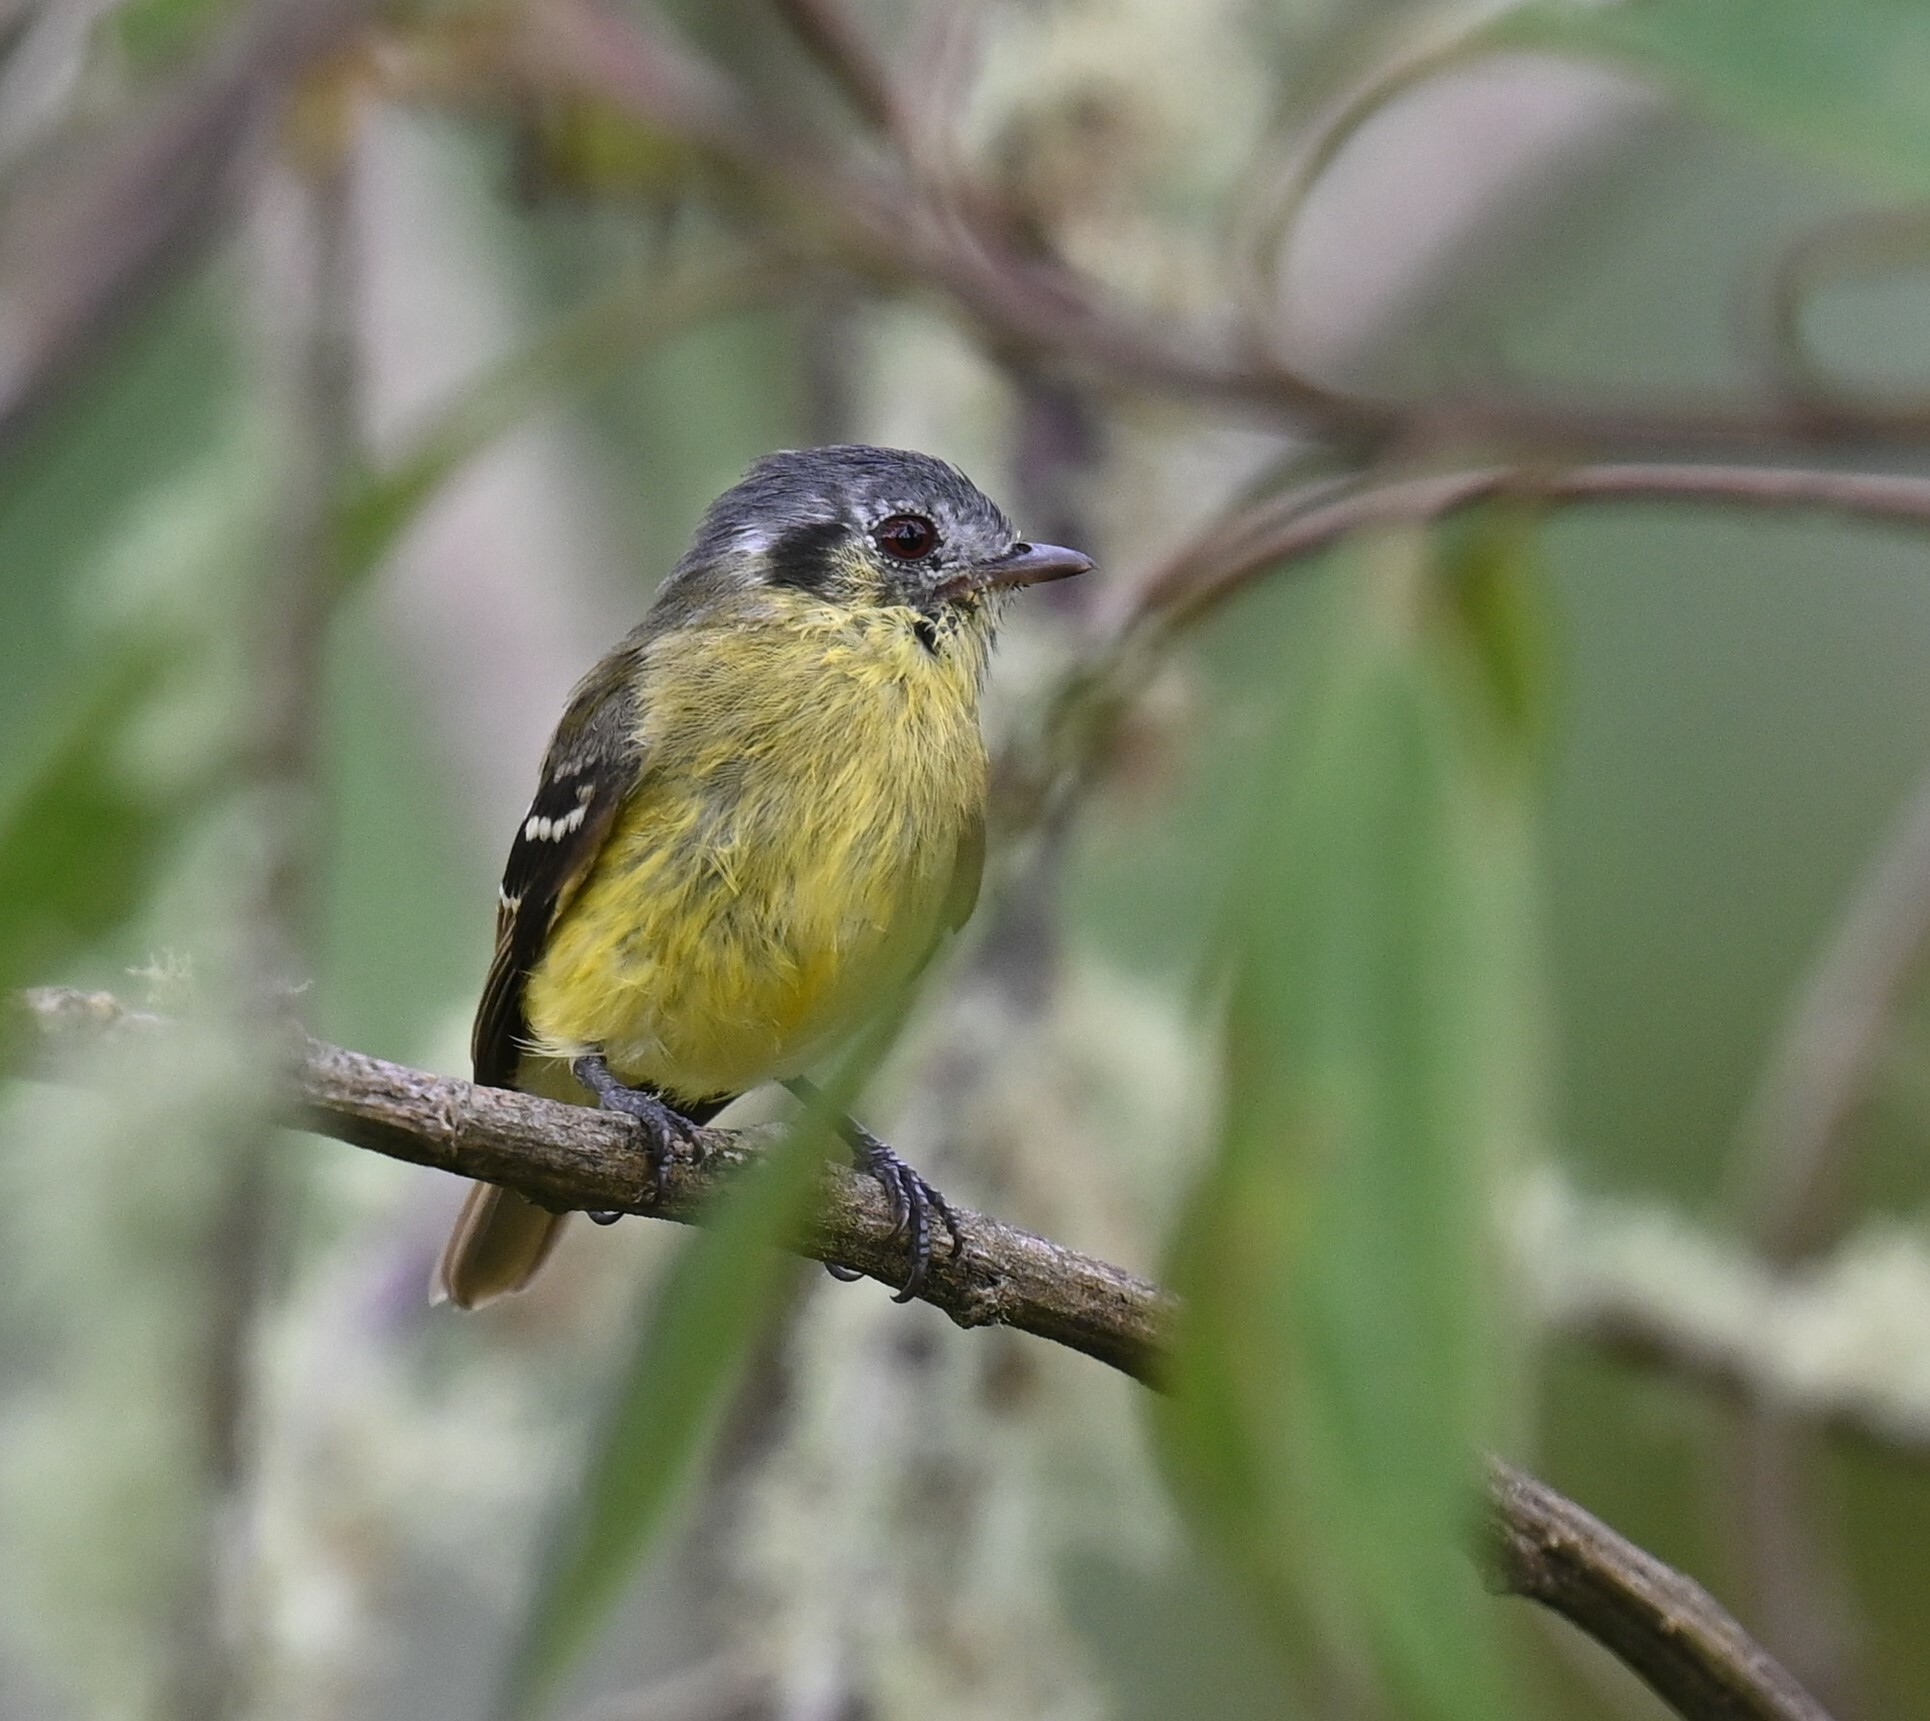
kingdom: Animalia
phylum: Chordata
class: Aves
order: Passeriformes
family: Tyrannidae
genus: Phyllomyias
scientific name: Phyllomyias cinereiceps
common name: Ashy-headed tyrannulet
